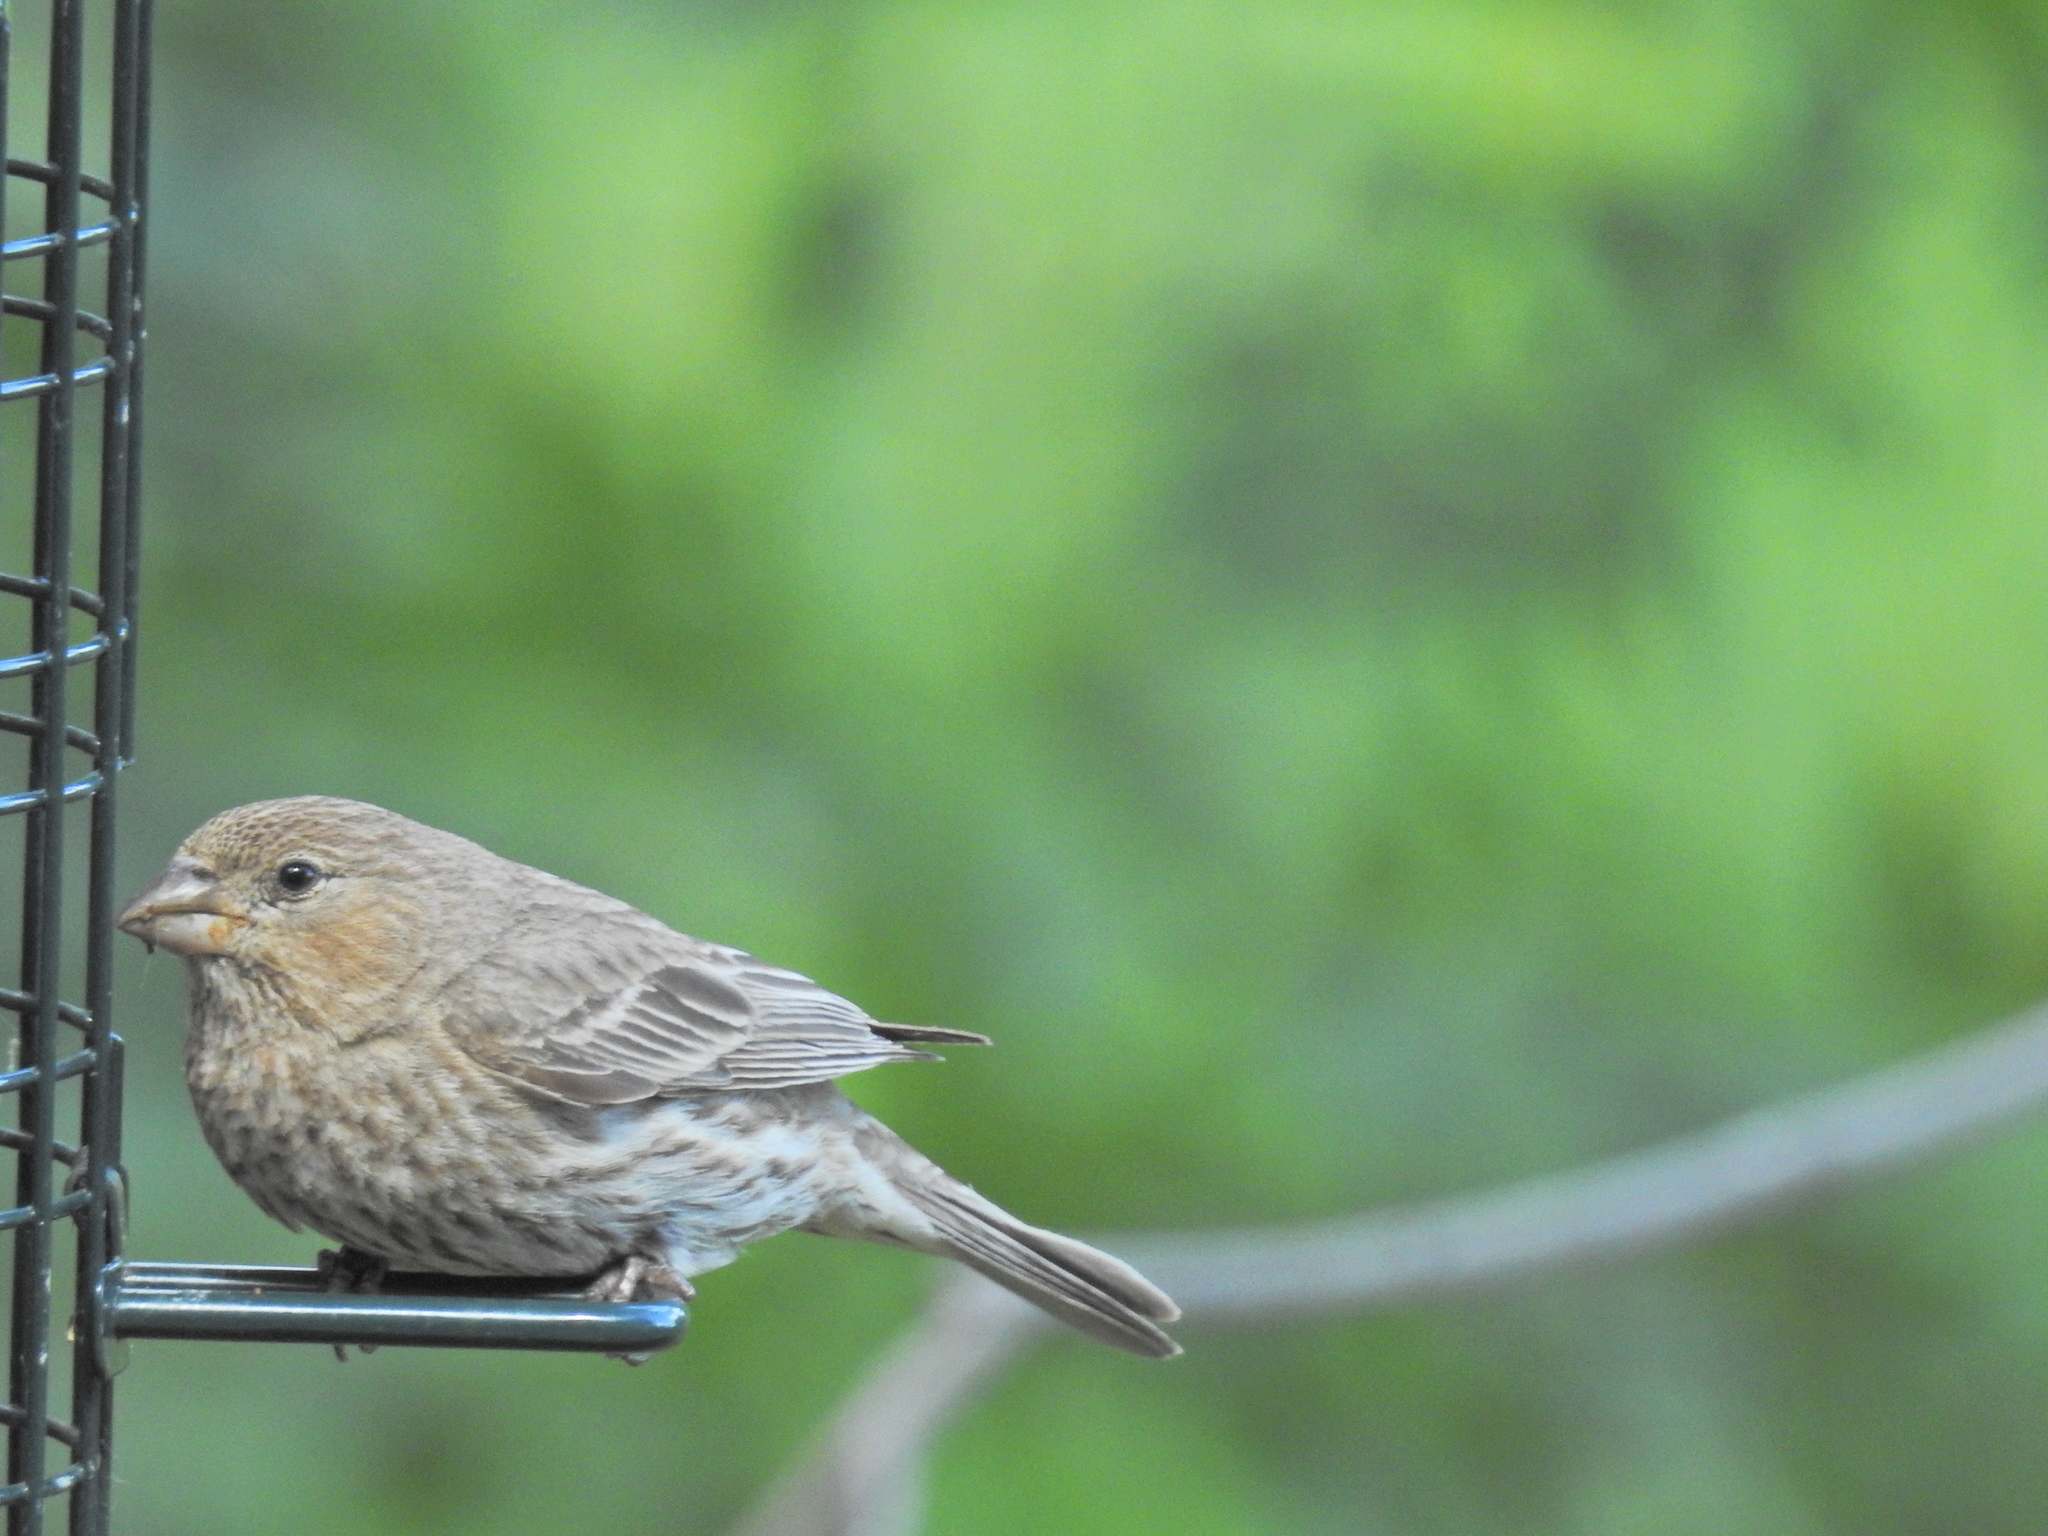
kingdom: Animalia
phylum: Chordata
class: Aves
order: Passeriformes
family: Fringillidae
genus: Haemorhous
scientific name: Haemorhous mexicanus
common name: House finch
